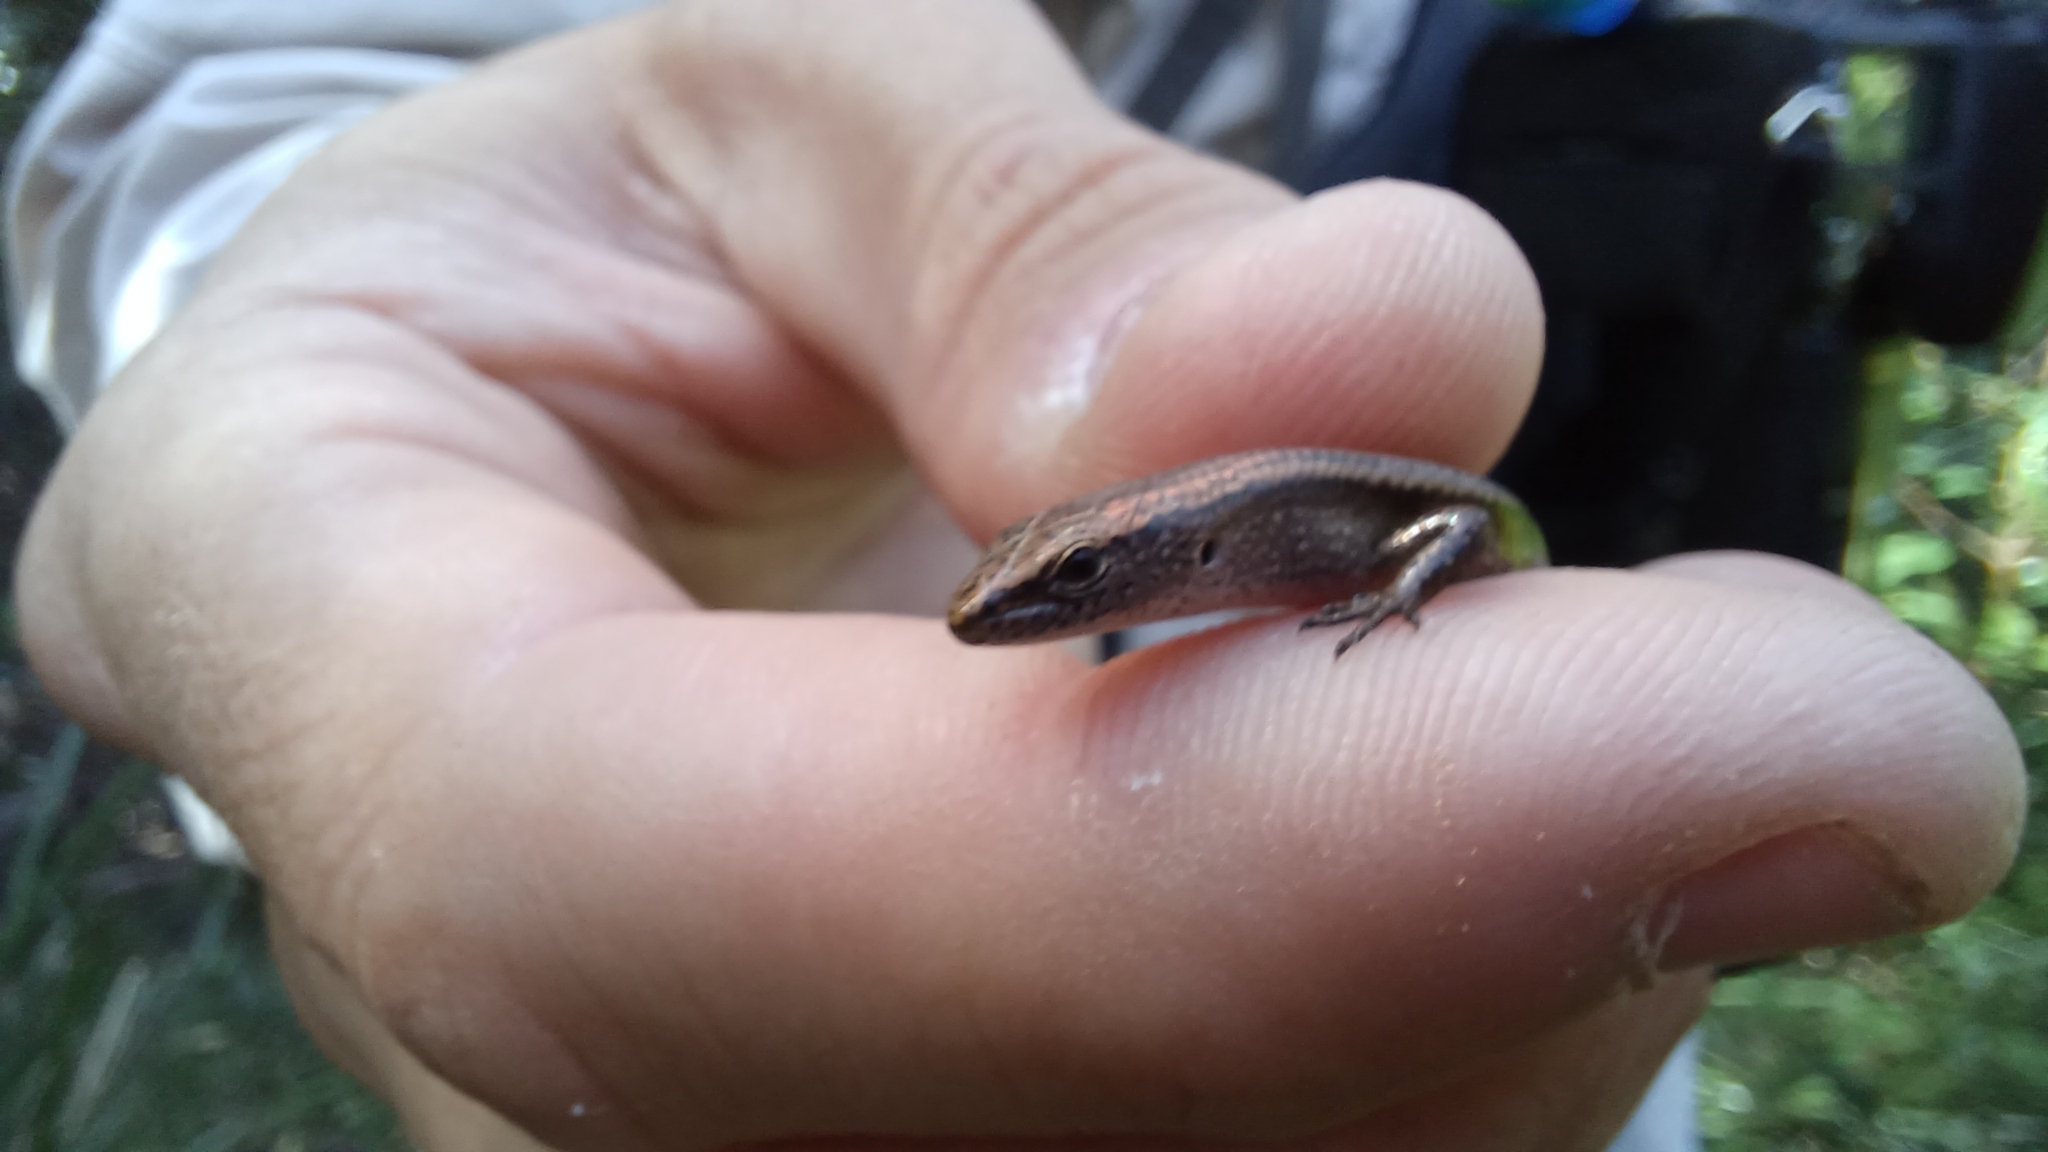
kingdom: Animalia
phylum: Chordata
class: Squamata
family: Scincidae
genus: Lampropholis
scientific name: Lampropholis delicata
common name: Plague skink
